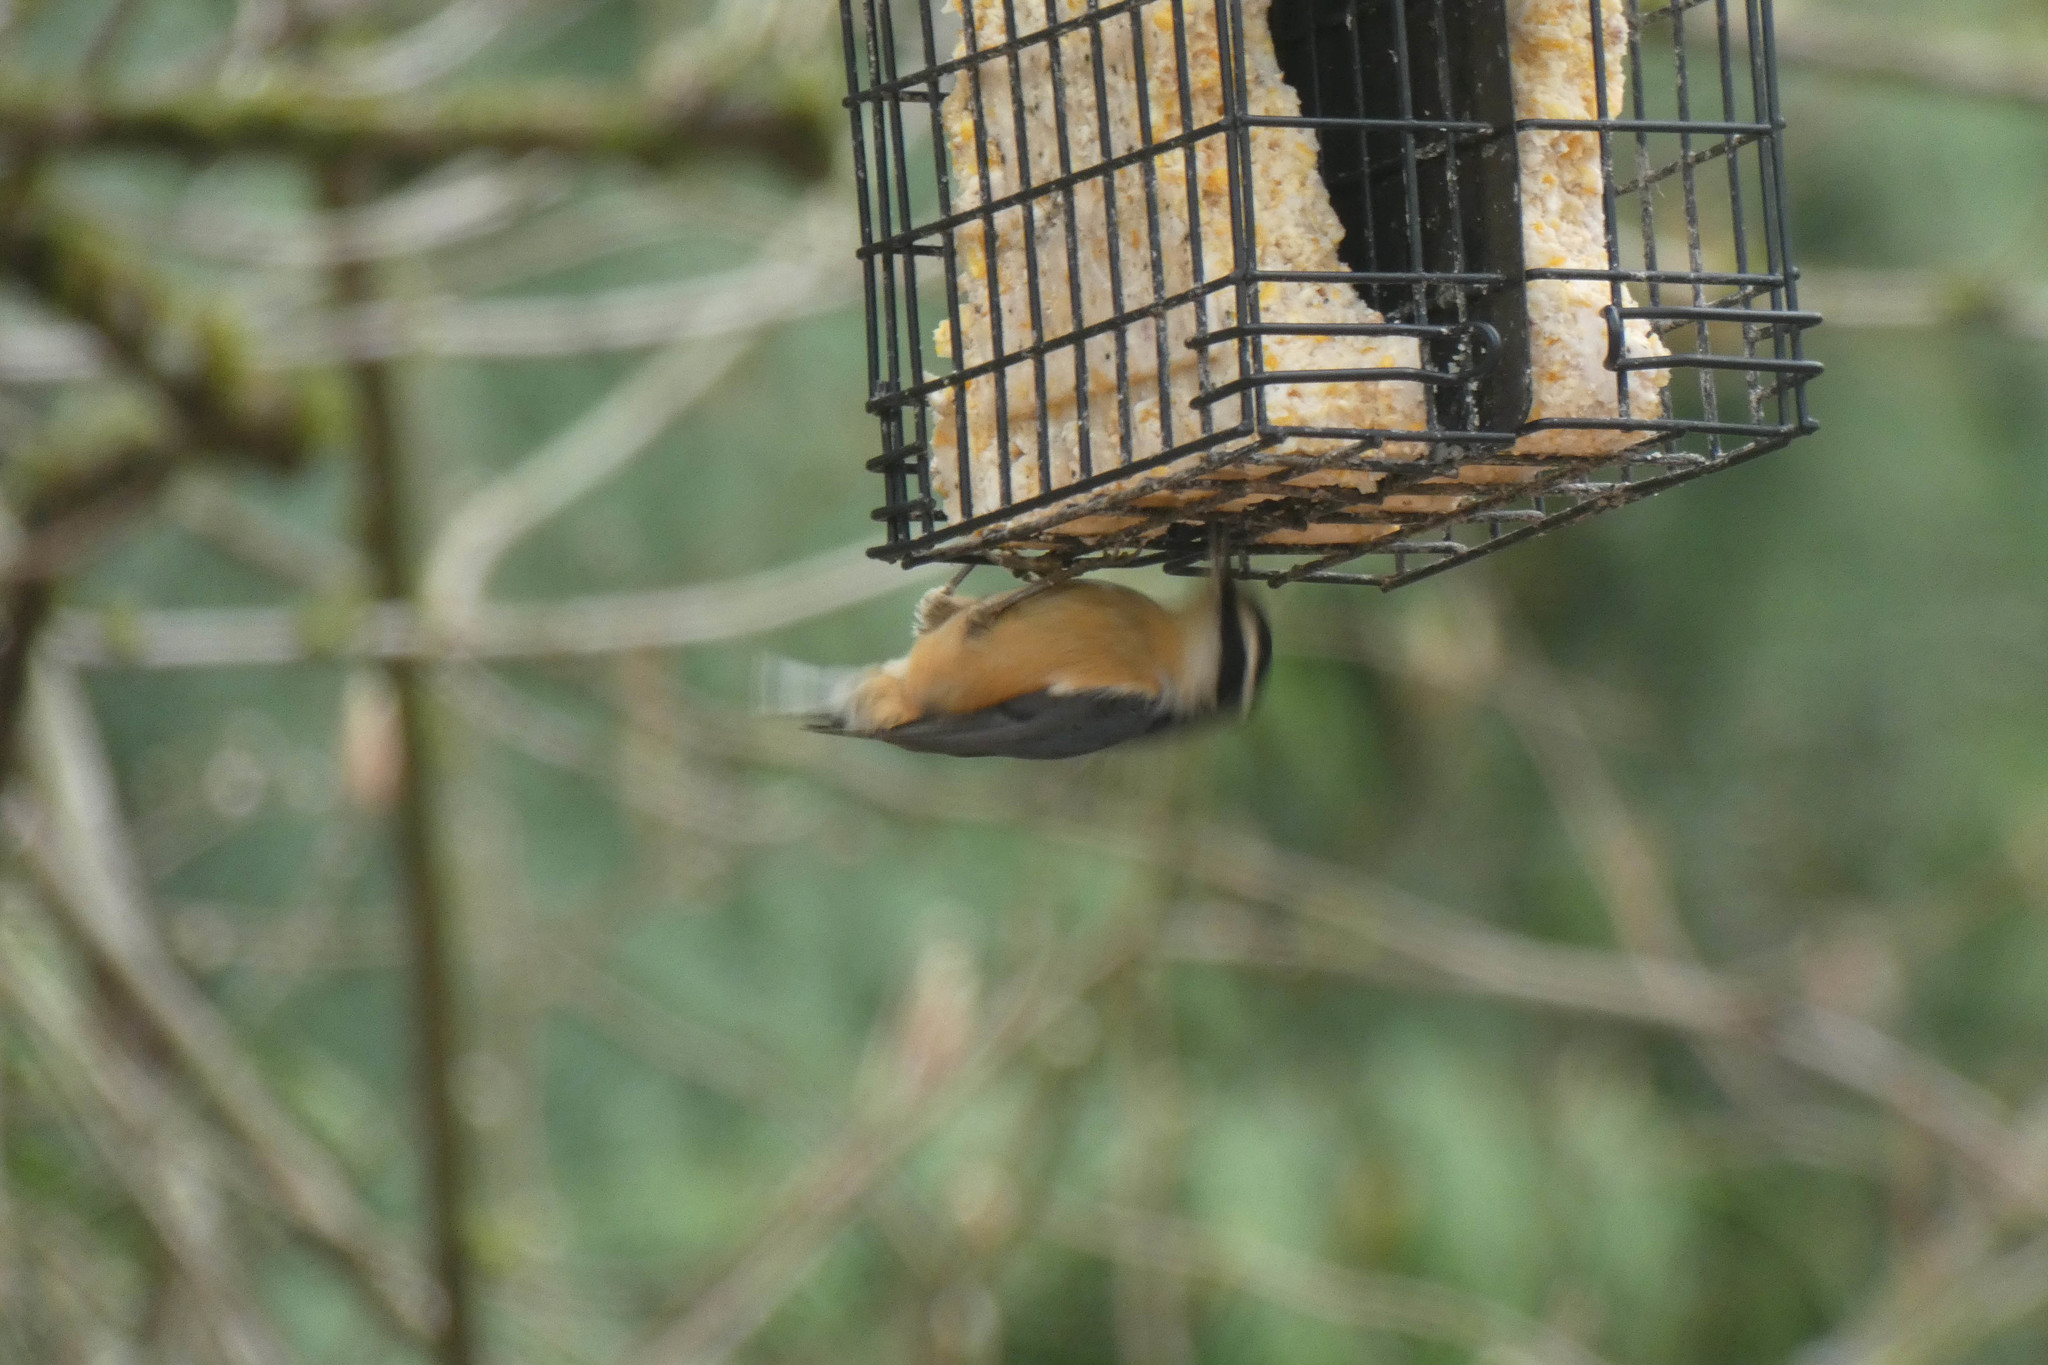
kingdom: Animalia
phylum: Chordata
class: Aves
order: Passeriformes
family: Sittidae
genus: Sitta
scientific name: Sitta canadensis
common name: Red-breasted nuthatch
